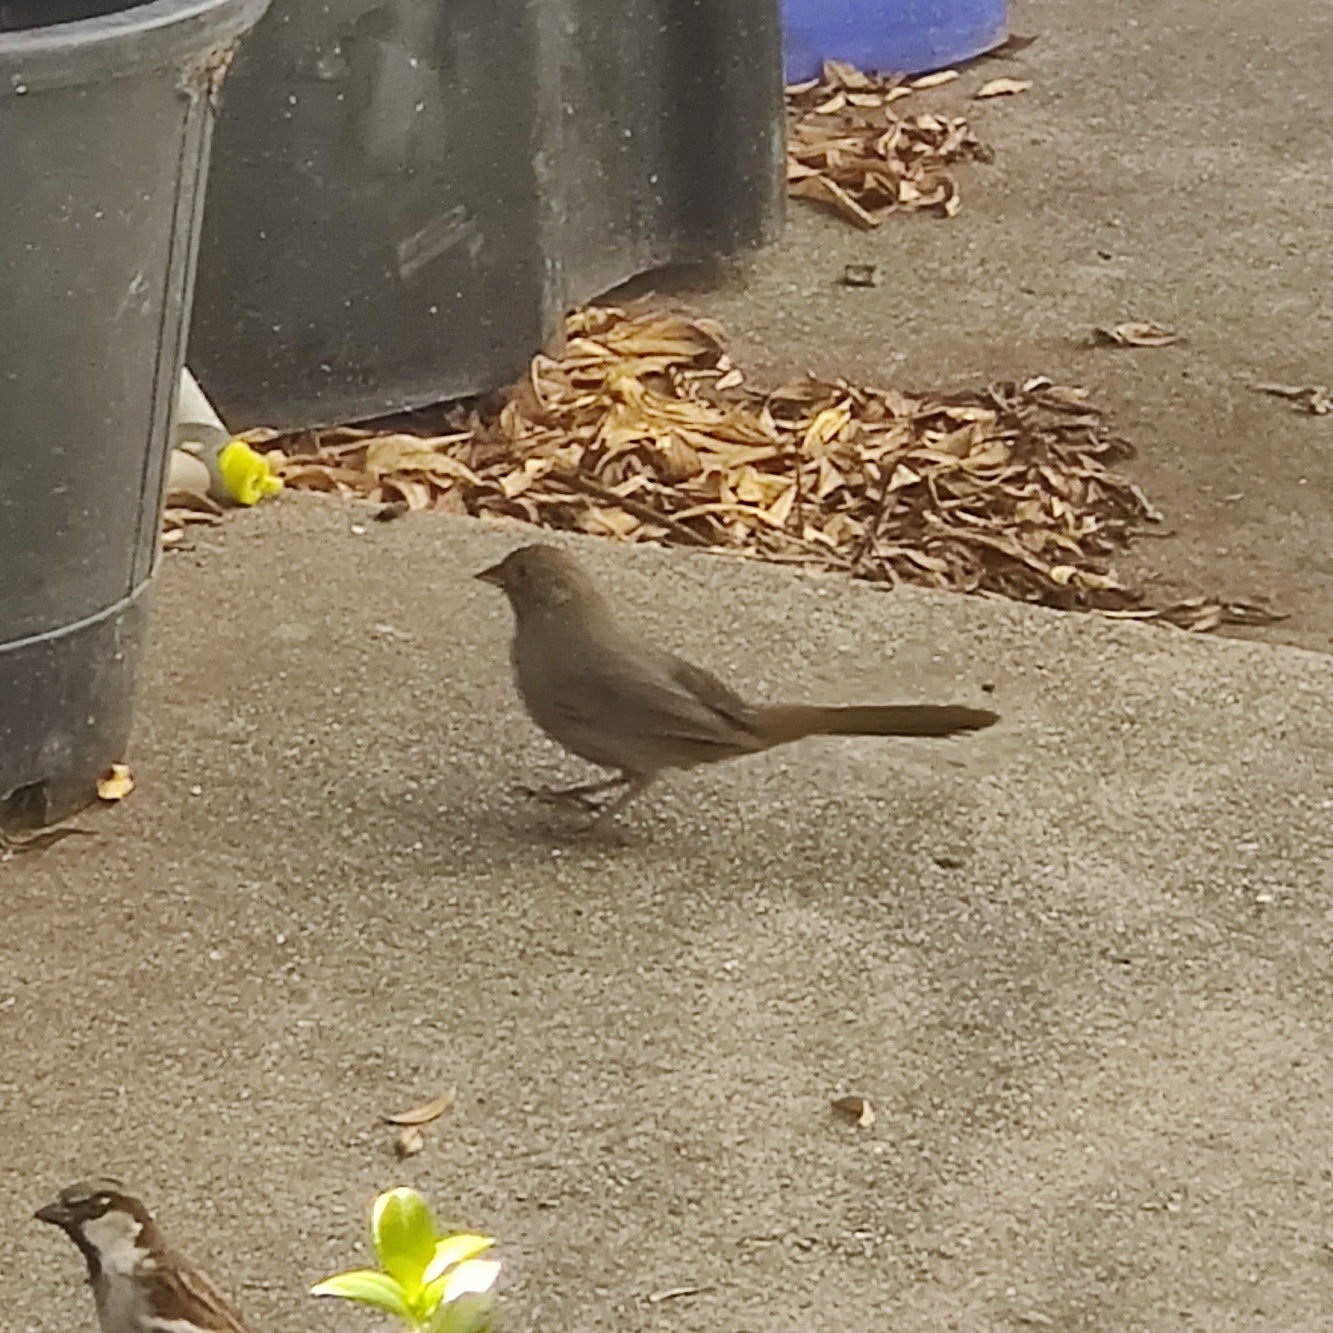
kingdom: Animalia
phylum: Chordata
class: Aves
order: Passeriformes
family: Passerellidae
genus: Melozone
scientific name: Melozone crissalis
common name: California towhee
